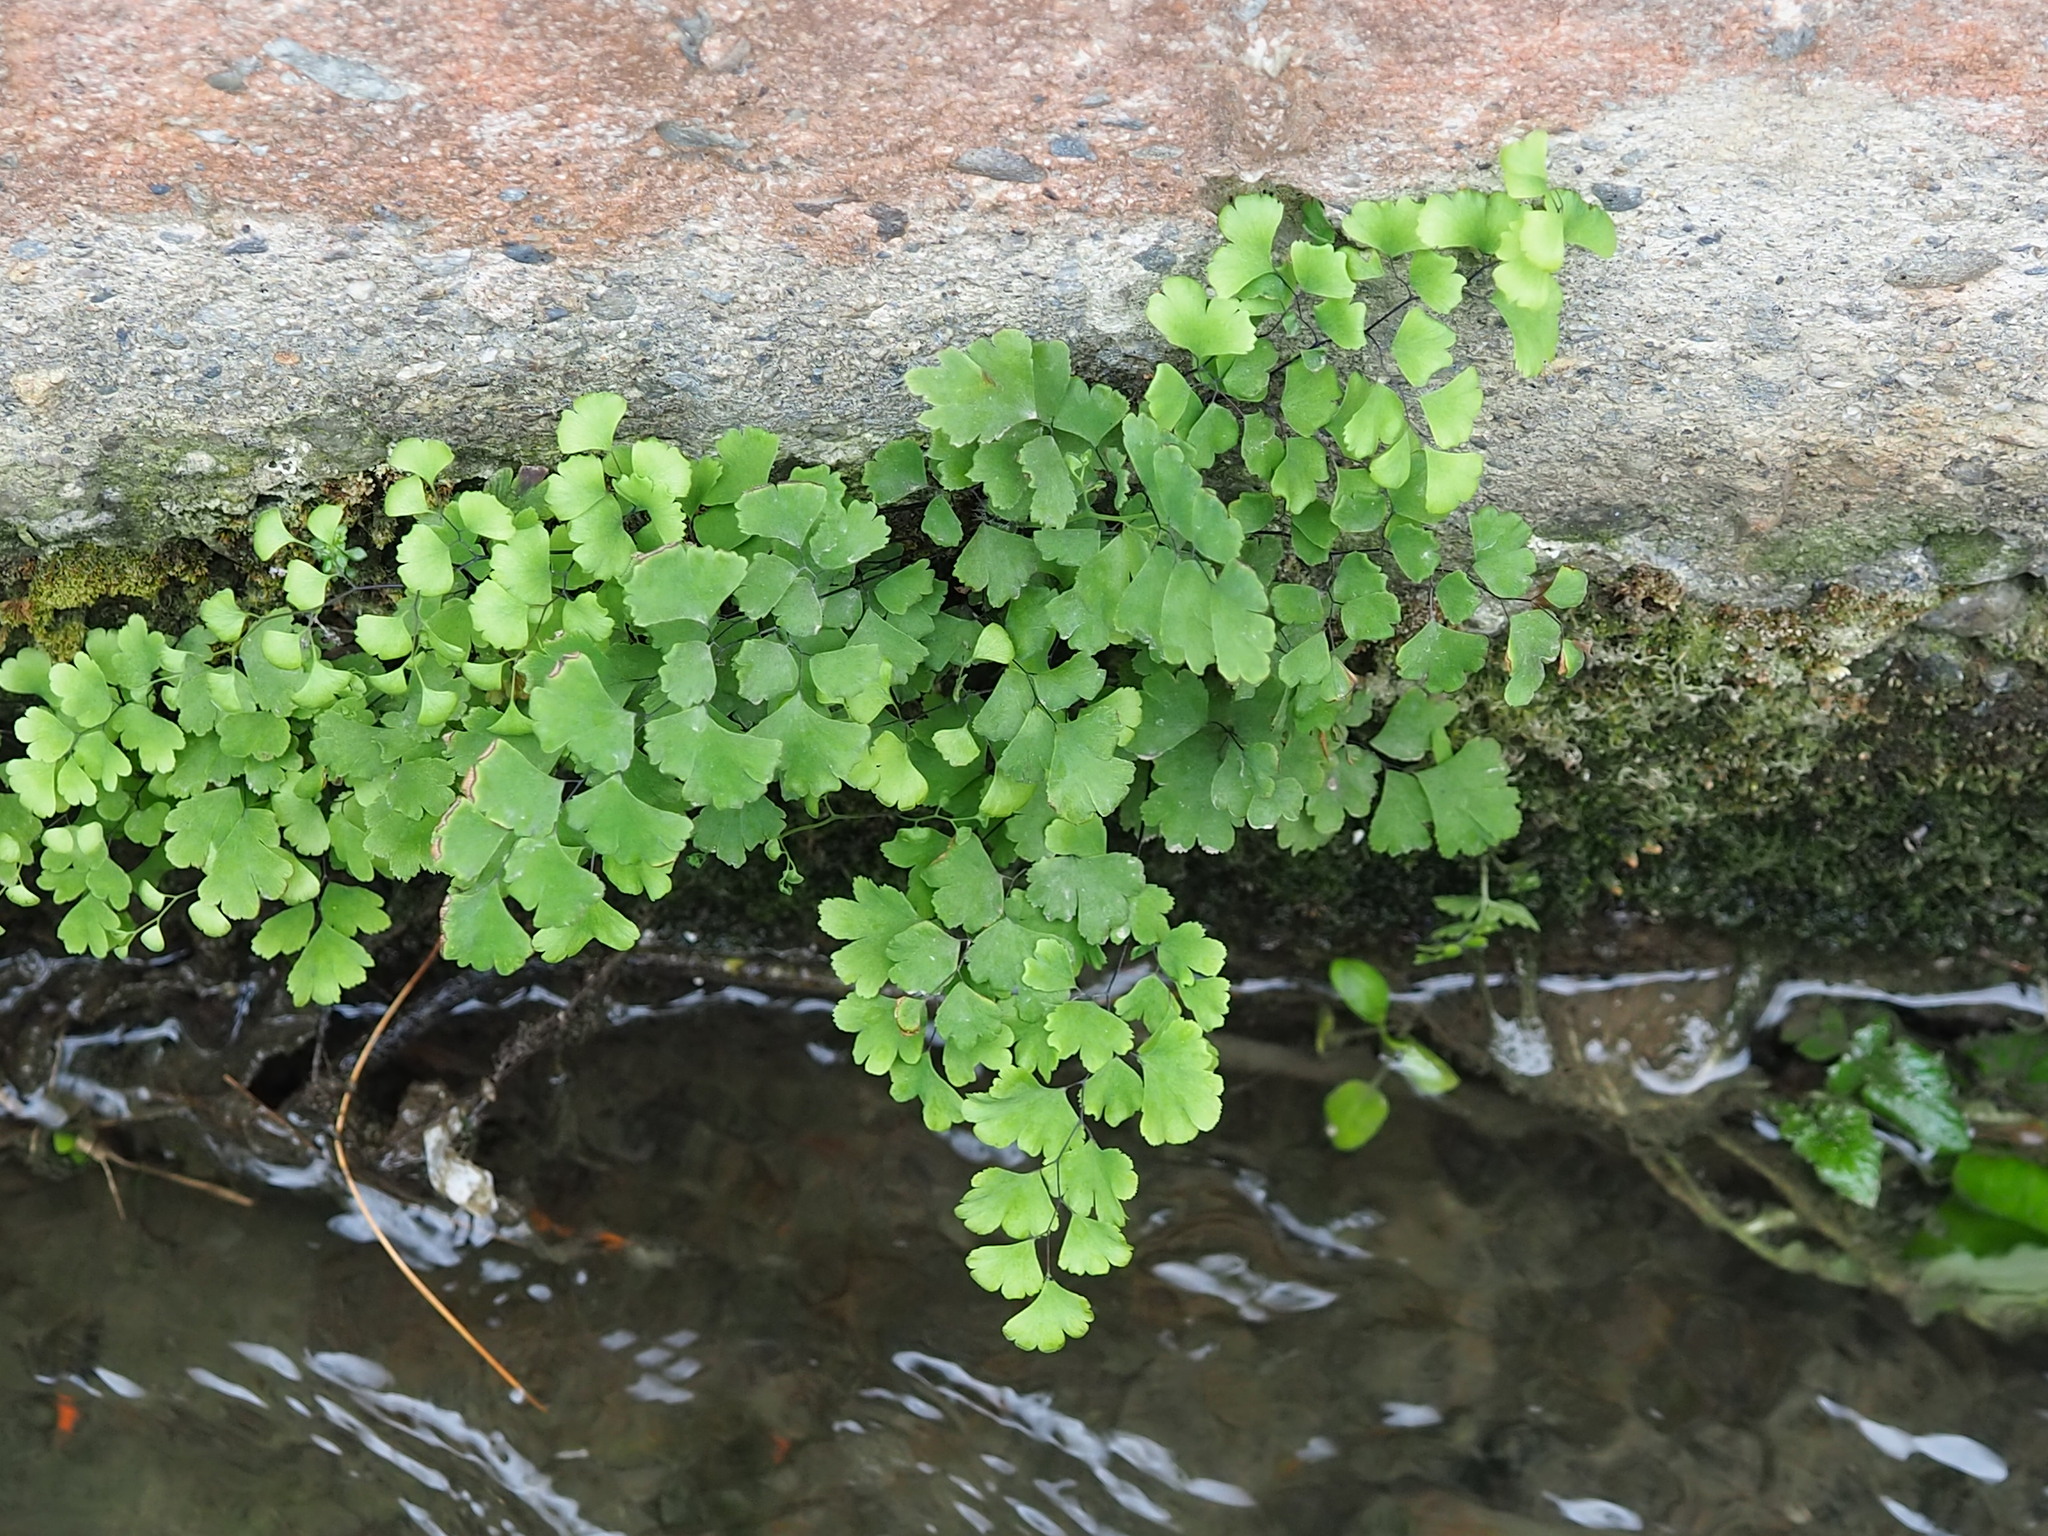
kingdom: Plantae
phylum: Tracheophyta
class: Polypodiopsida
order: Polypodiales
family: Pteridaceae
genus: Adiantum
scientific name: Adiantum capillus-veneris
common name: Maidenhair fern
